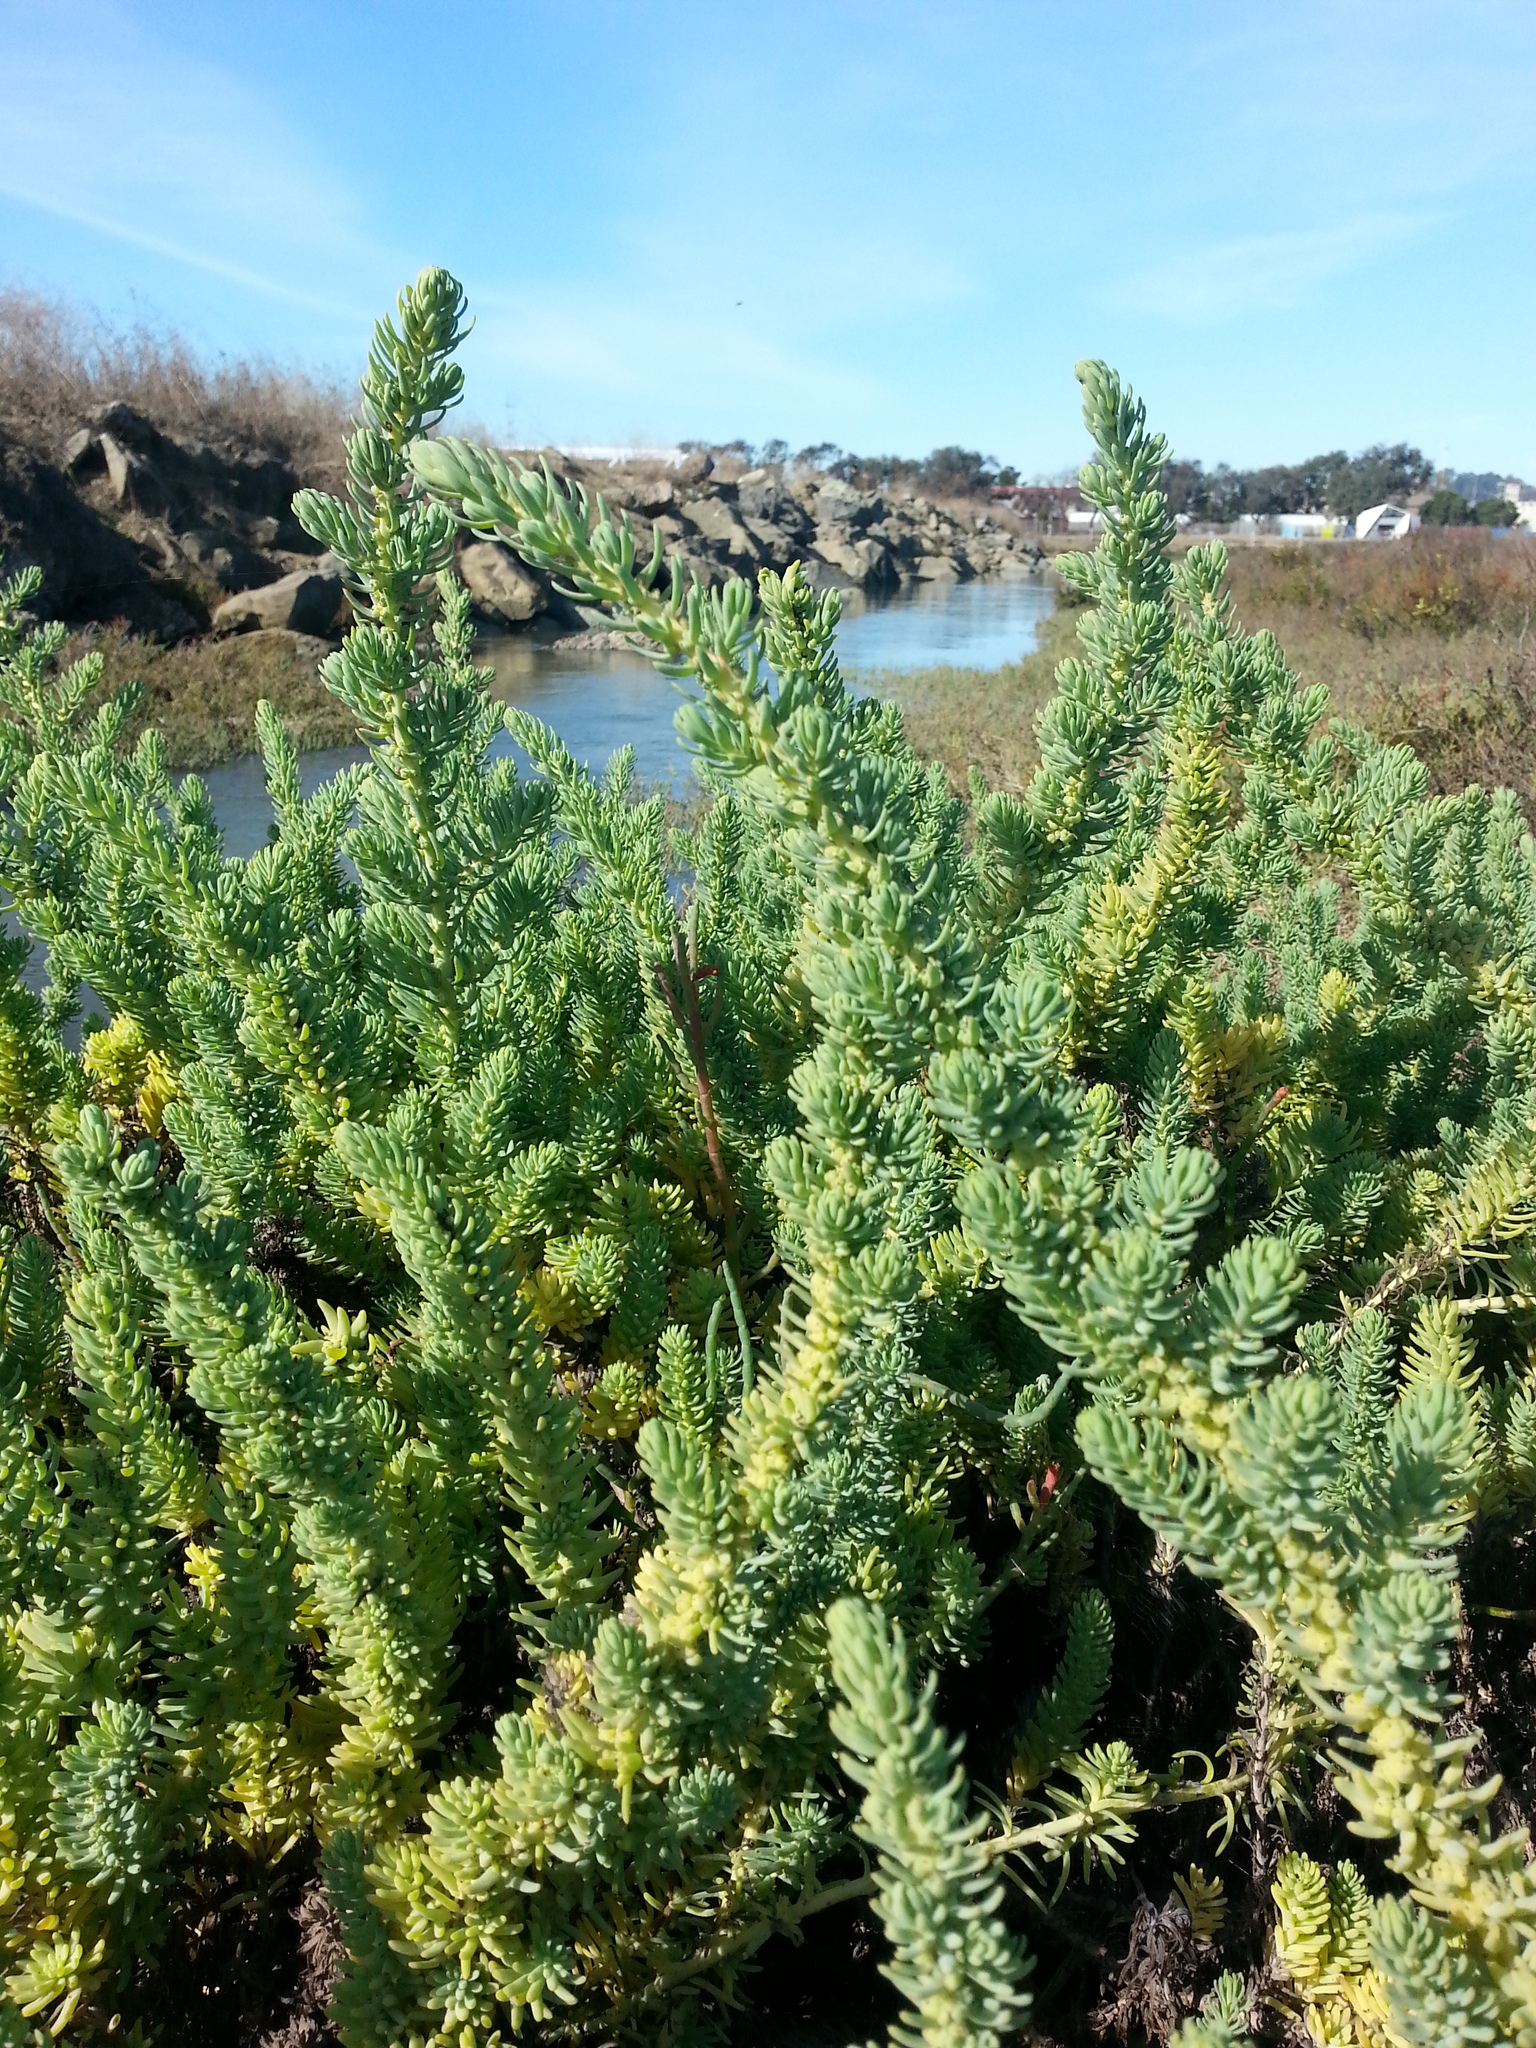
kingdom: Plantae
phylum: Tracheophyta
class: Magnoliopsida
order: Caryophyllales
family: Amaranthaceae
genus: Suaeda
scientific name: Suaeda californica
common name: California sea-blite
